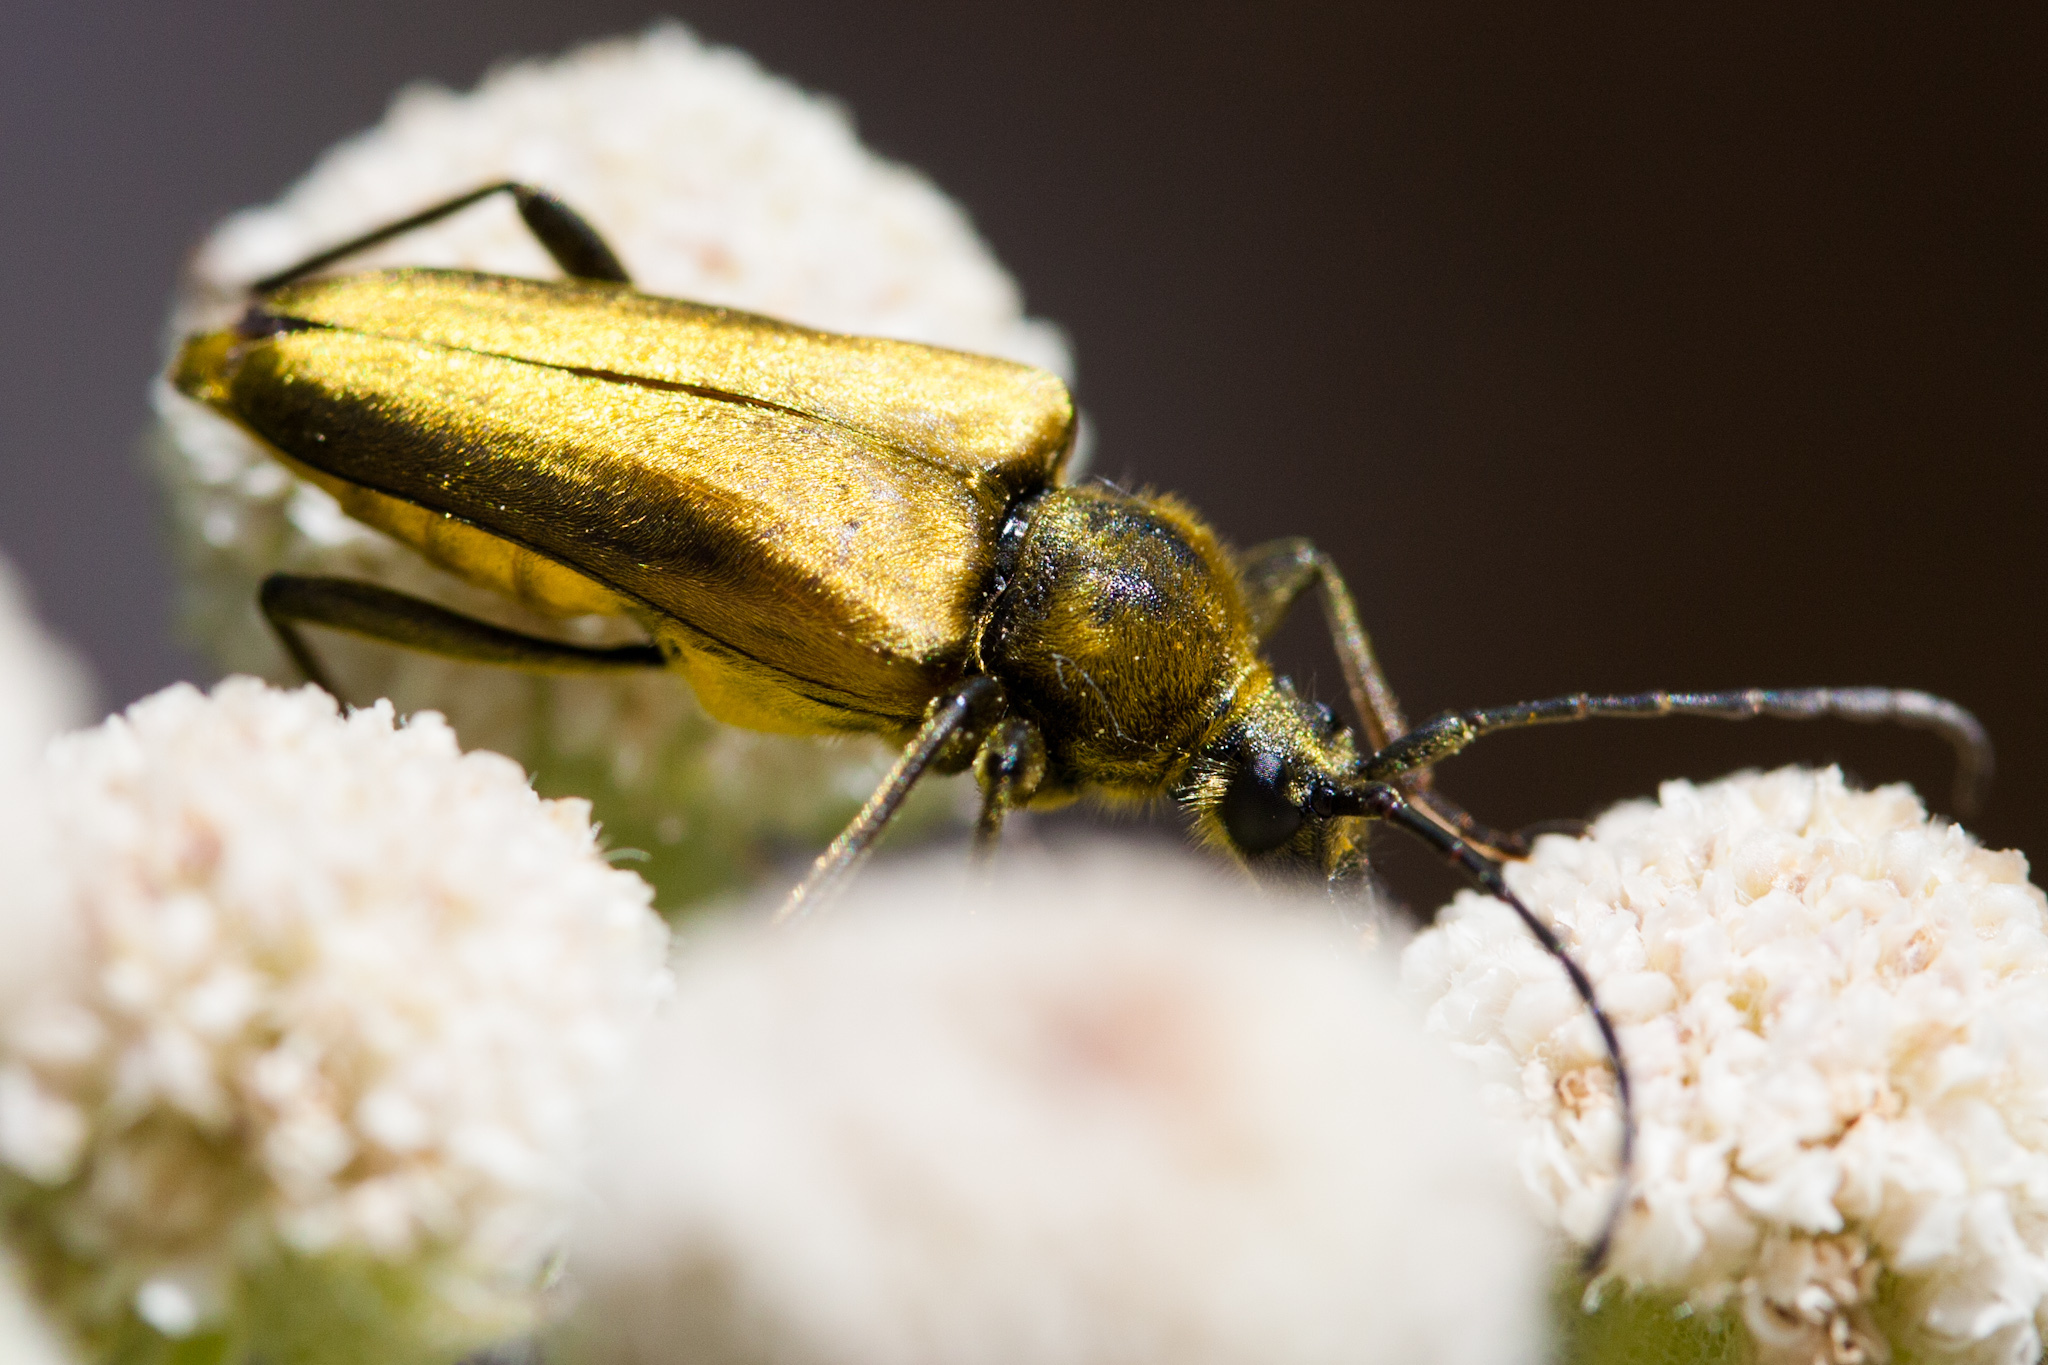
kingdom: Animalia
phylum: Arthropoda
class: Insecta
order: Coleoptera
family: Cerambycidae
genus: Cosmosalia
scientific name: Cosmosalia chrysocoma
